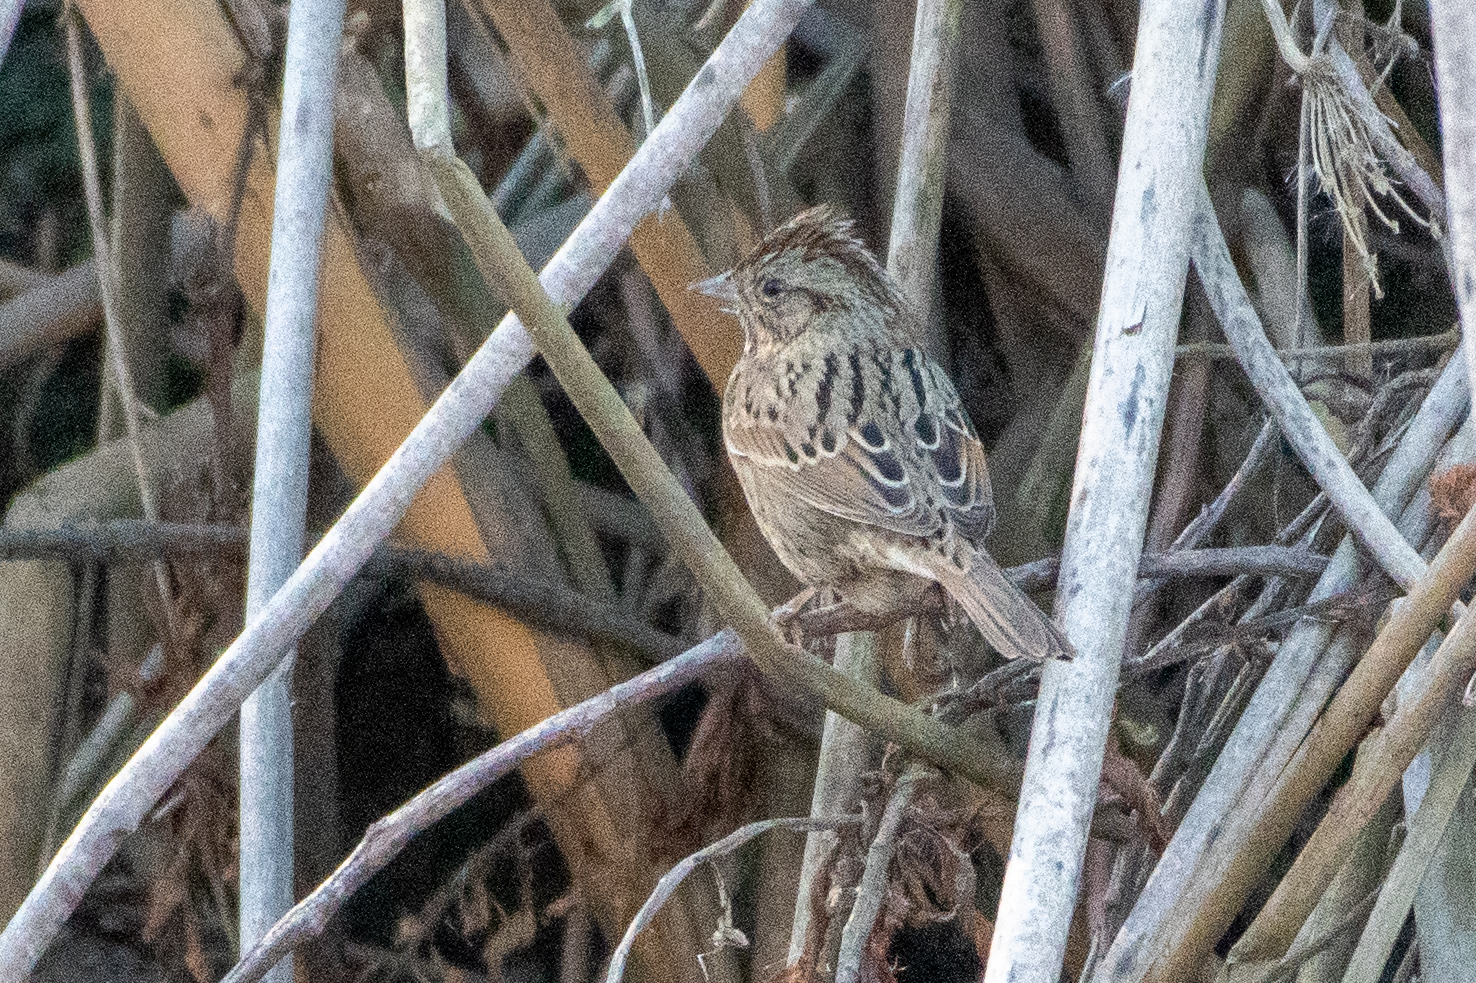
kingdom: Animalia
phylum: Chordata
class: Aves
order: Passeriformes
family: Passerellidae
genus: Melospiza
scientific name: Melospiza lincolnii
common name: Lincoln's sparrow
